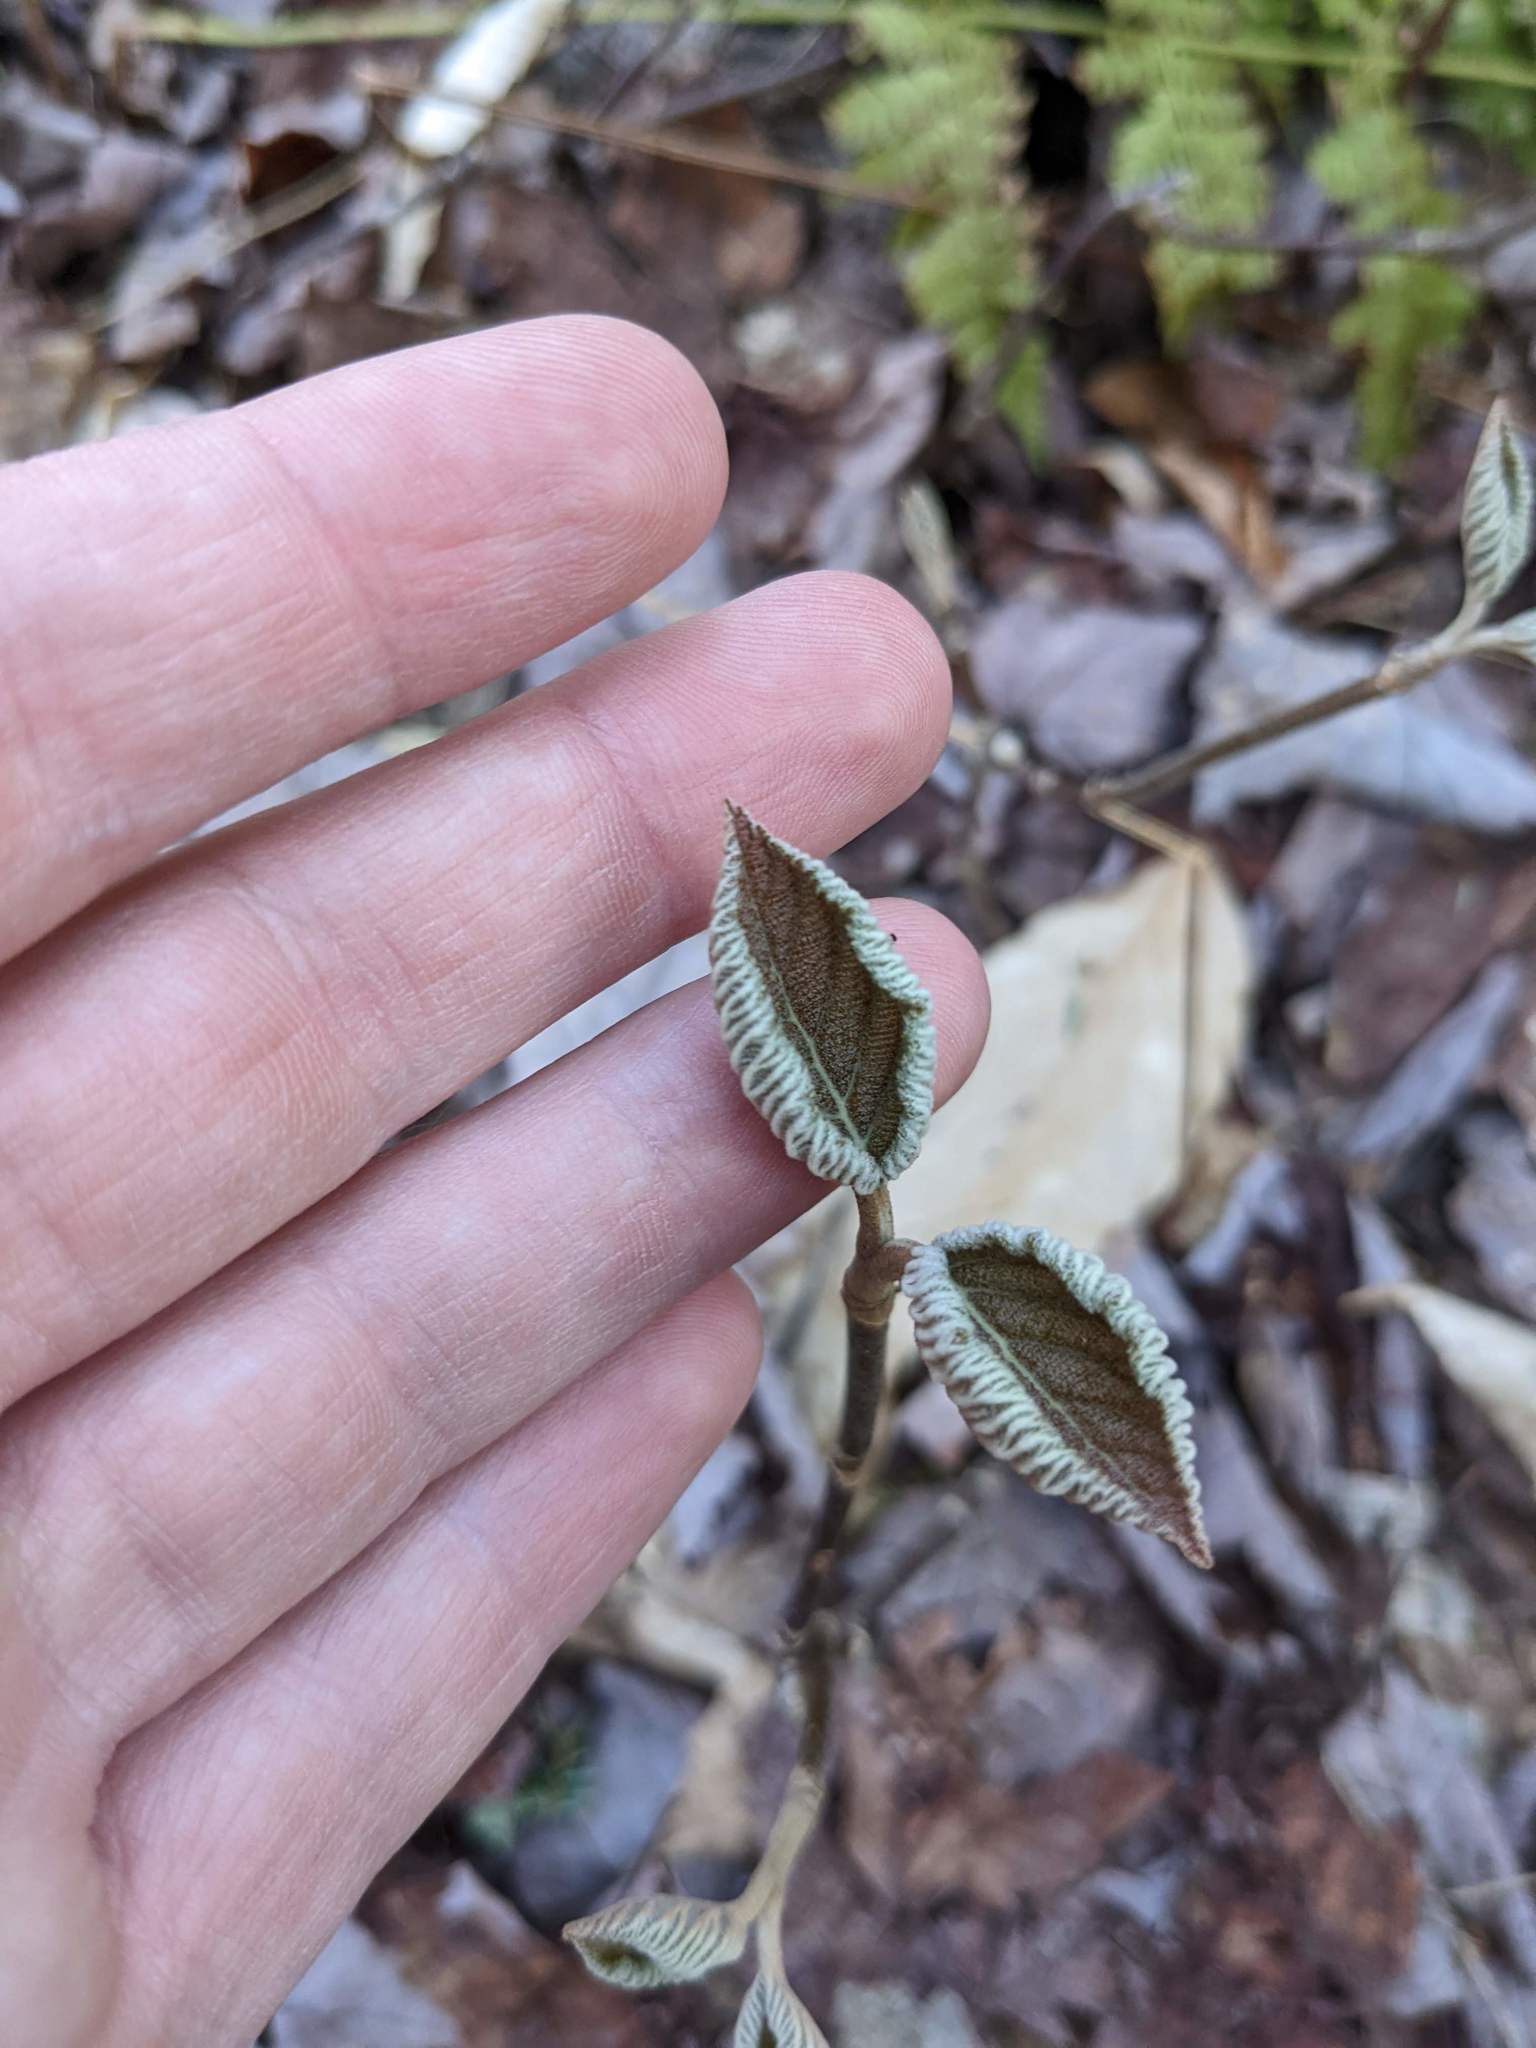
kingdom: Plantae
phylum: Tracheophyta
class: Magnoliopsida
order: Dipsacales
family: Viburnaceae
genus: Viburnum
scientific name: Viburnum lantanoides
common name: Hobblebush
